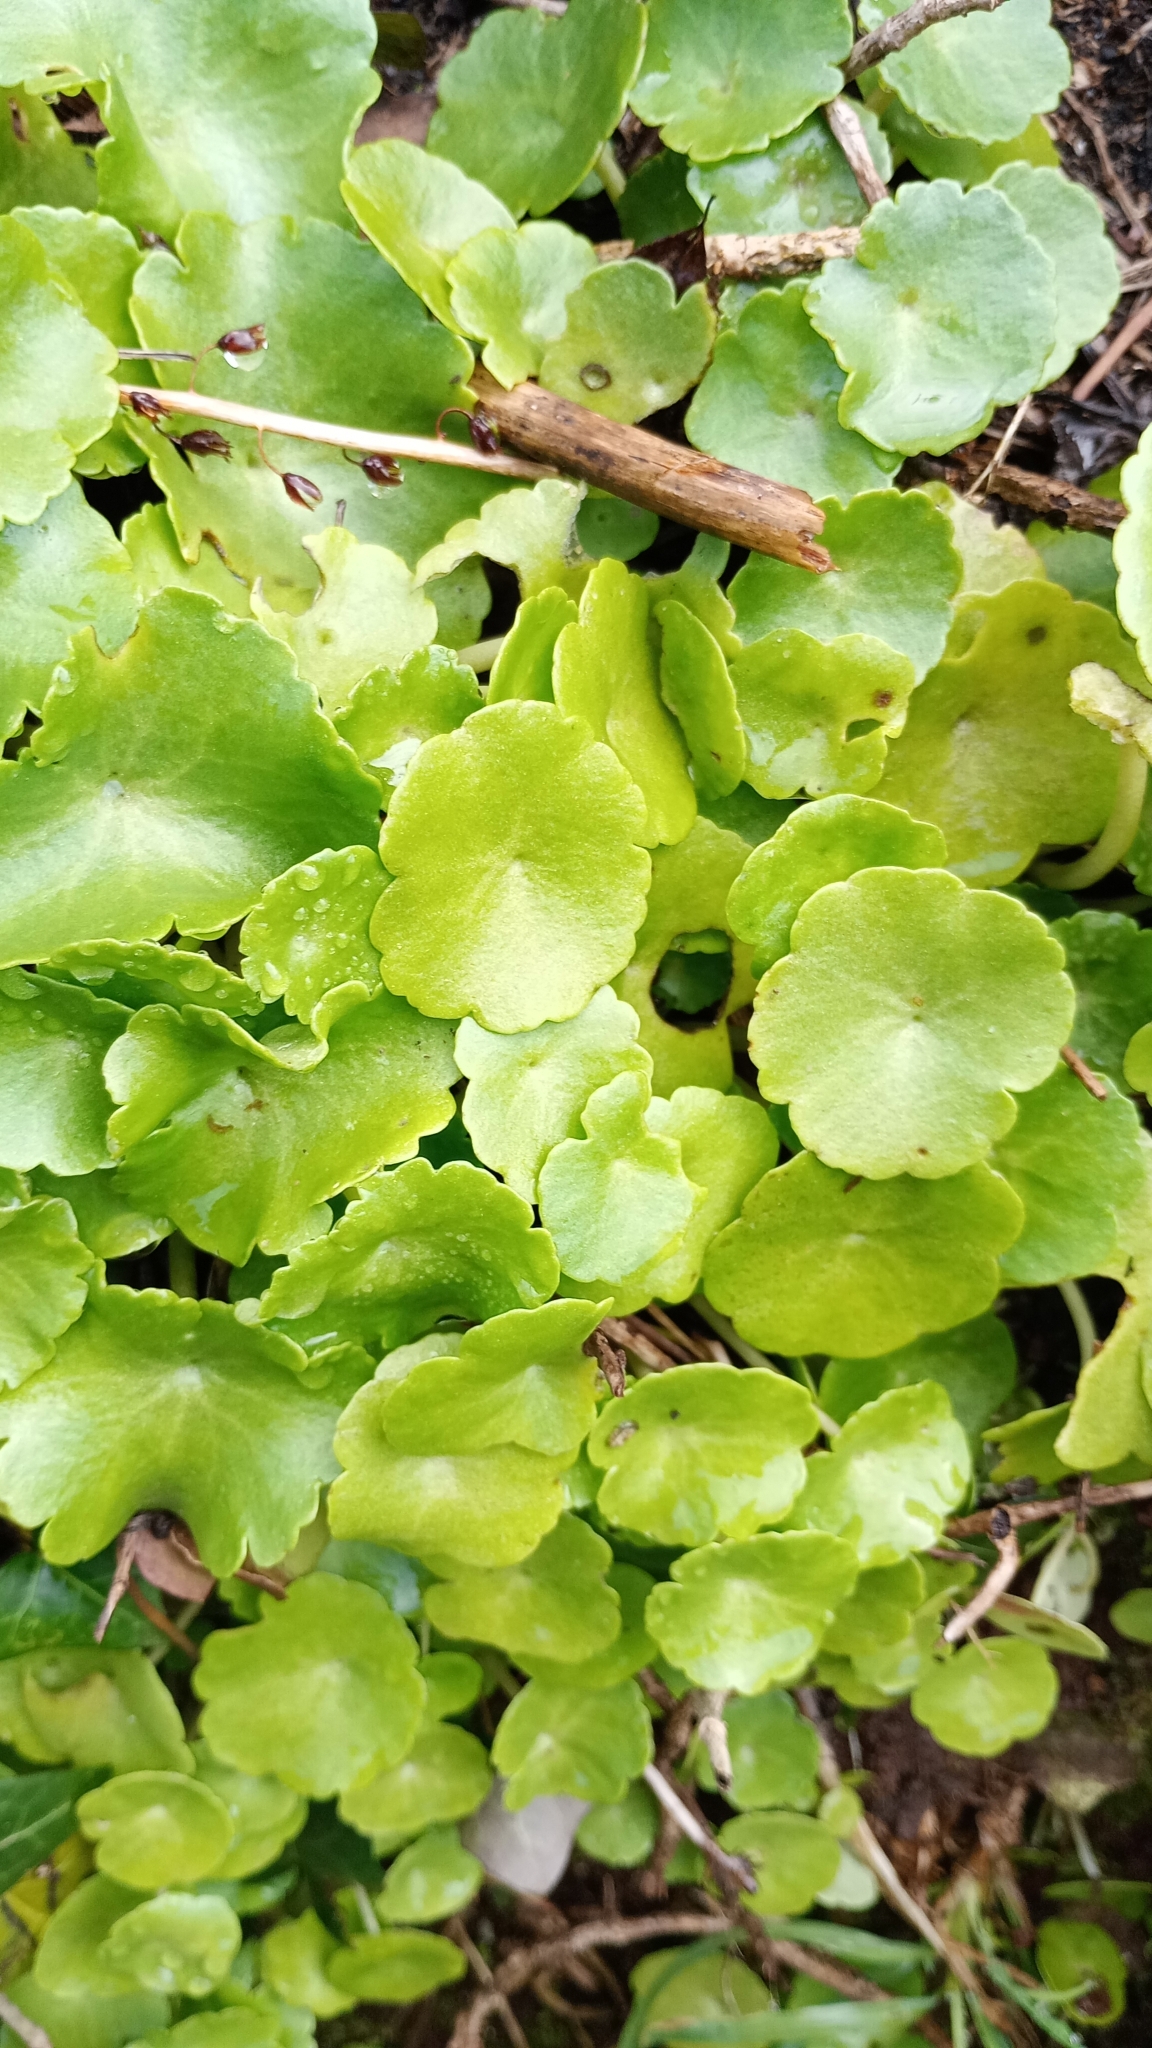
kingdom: Plantae
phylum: Tracheophyta
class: Magnoliopsida
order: Saxifragales
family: Crassulaceae
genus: Umbilicus
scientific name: Umbilicus rupestris
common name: Navelwort
